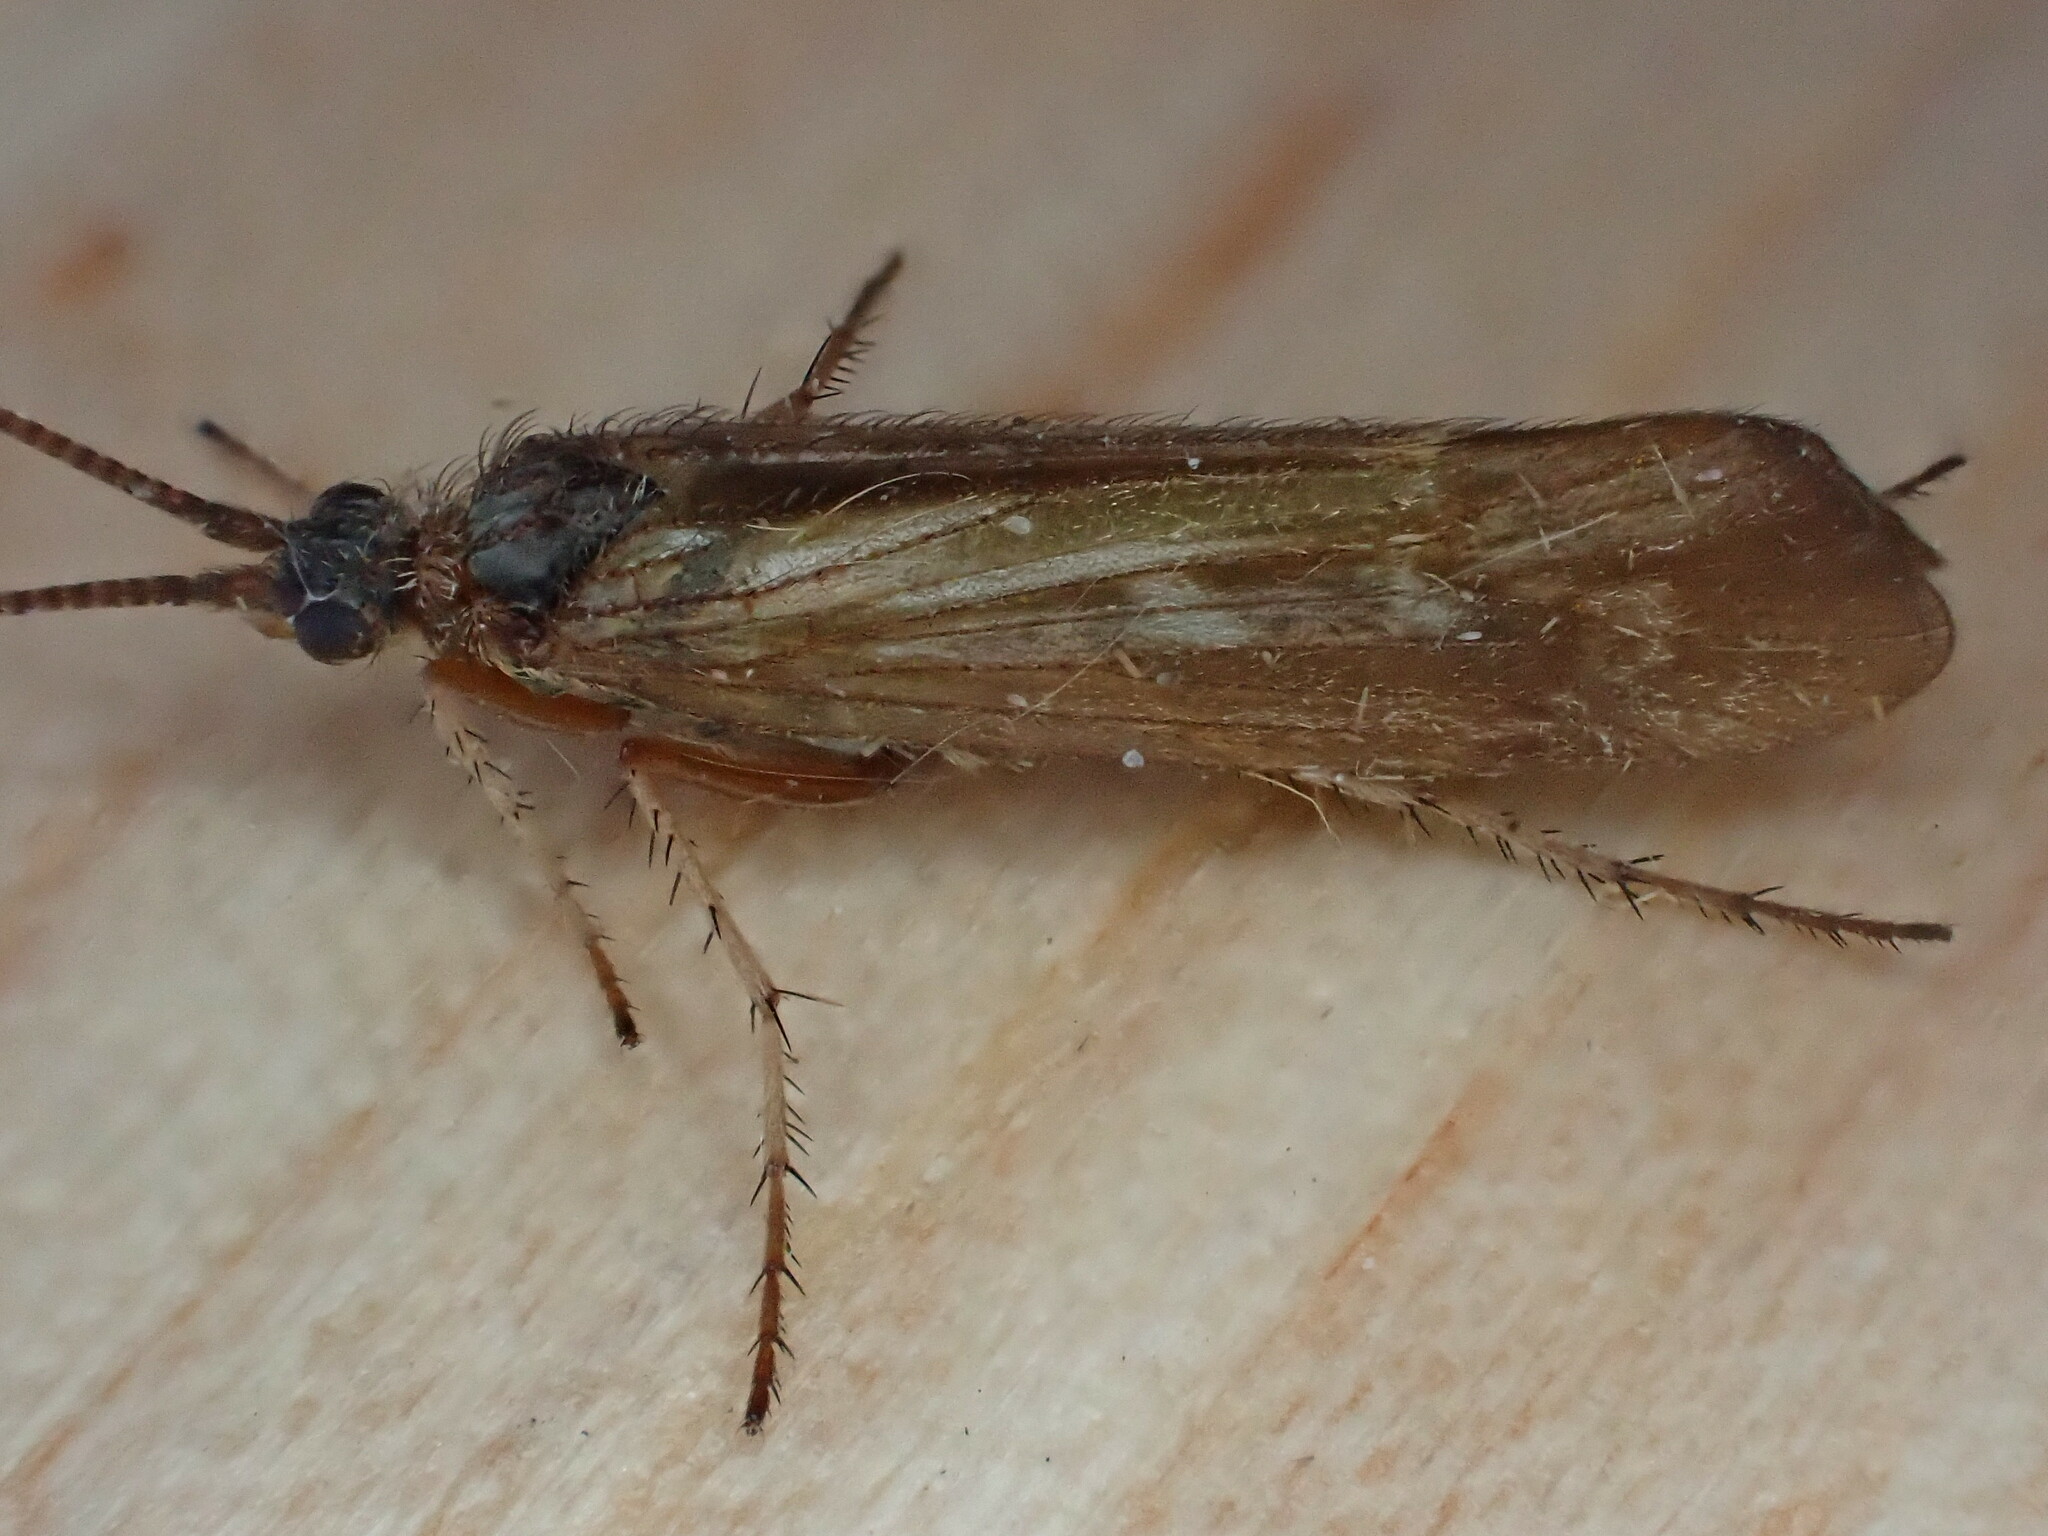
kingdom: Animalia
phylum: Arthropoda
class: Insecta
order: Trichoptera
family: Limnephilidae
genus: Limnephilus
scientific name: Limnephilus auricula
